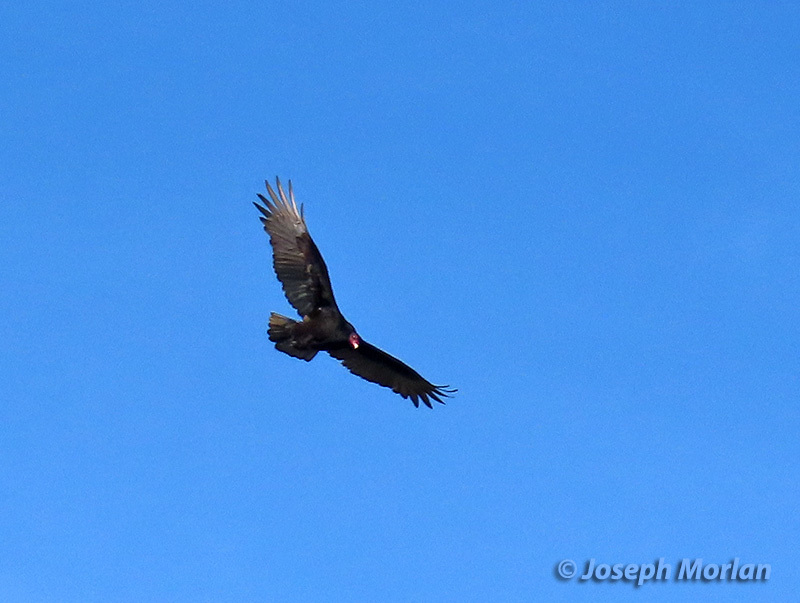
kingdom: Animalia
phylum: Chordata
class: Aves
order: Accipitriformes
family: Cathartidae
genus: Cathartes
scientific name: Cathartes aura
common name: Turkey vulture
